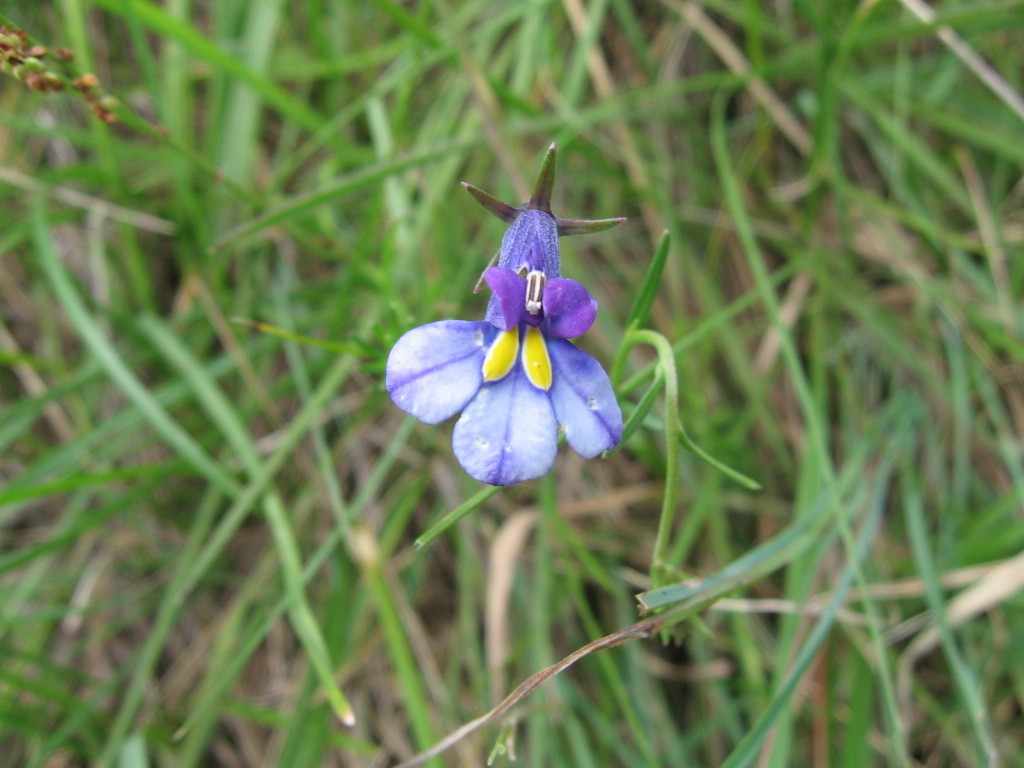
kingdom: Plantae
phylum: Tracheophyta
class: Magnoliopsida
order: Asterales
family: Campanulaceae
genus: Monopsis
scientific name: Monopsis decipiens
